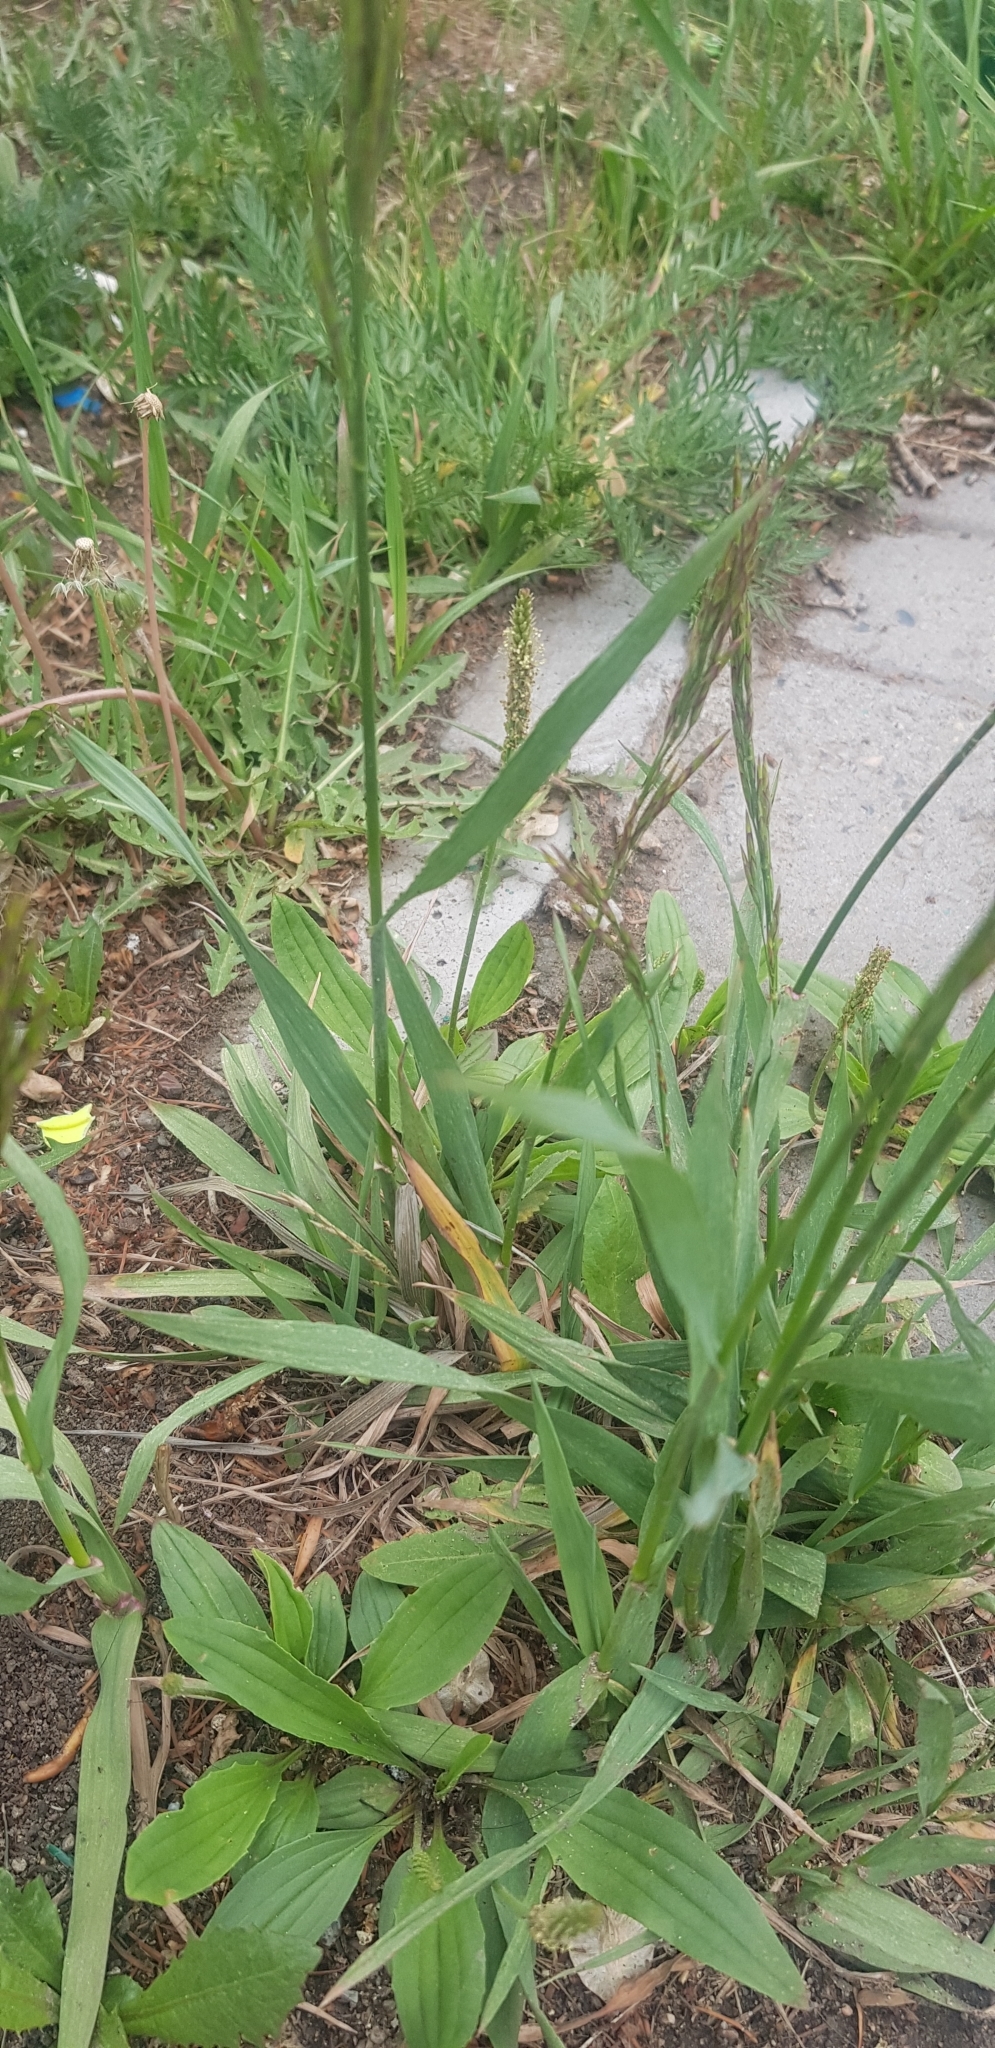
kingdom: Plantae
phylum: Tracheophyta
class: Liliopsida
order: Poales
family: Poaceae
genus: Bromus
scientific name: Bromus inermis
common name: Smooth brome
